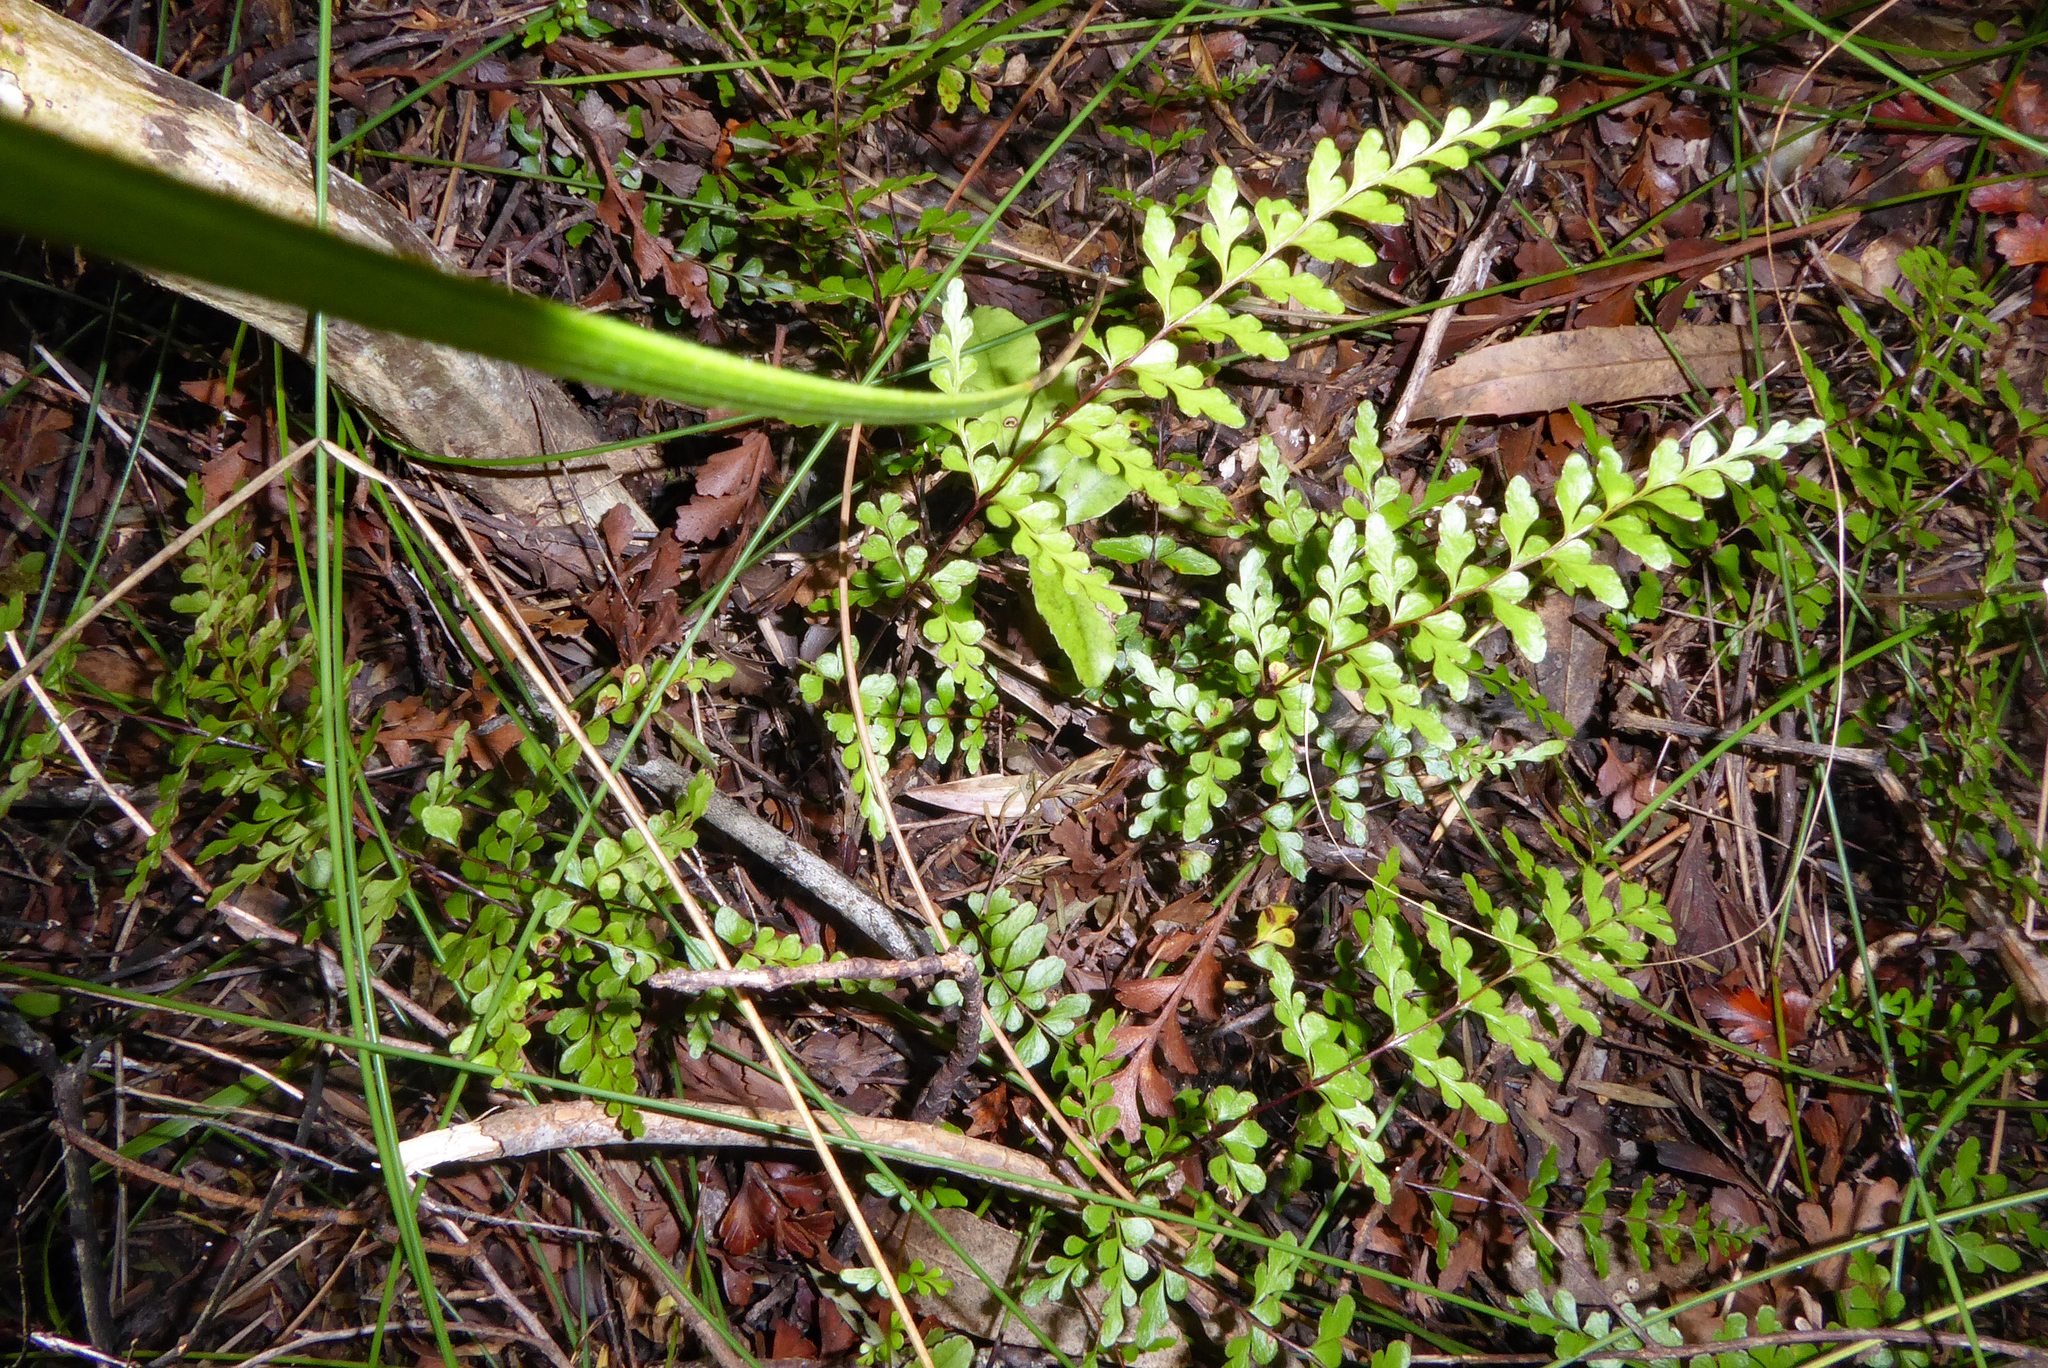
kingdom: Plantae
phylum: Tracheophyta
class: Polypodiopsida
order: Polypodiales
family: Lindsaeaceae
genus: Lindsaea
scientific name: Lindsaea trichomanoides
